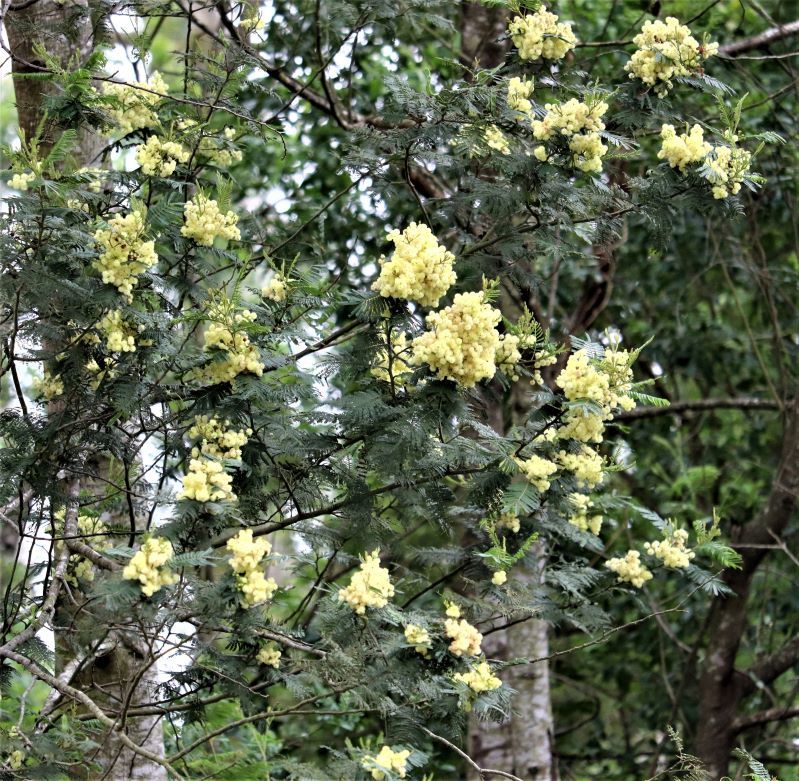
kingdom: Plantae
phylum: Tracheophyta
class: Magnoliopsida
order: Fabales
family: Fabaceae
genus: Acacia
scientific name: Acacia mearnsii
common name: Black wattle
